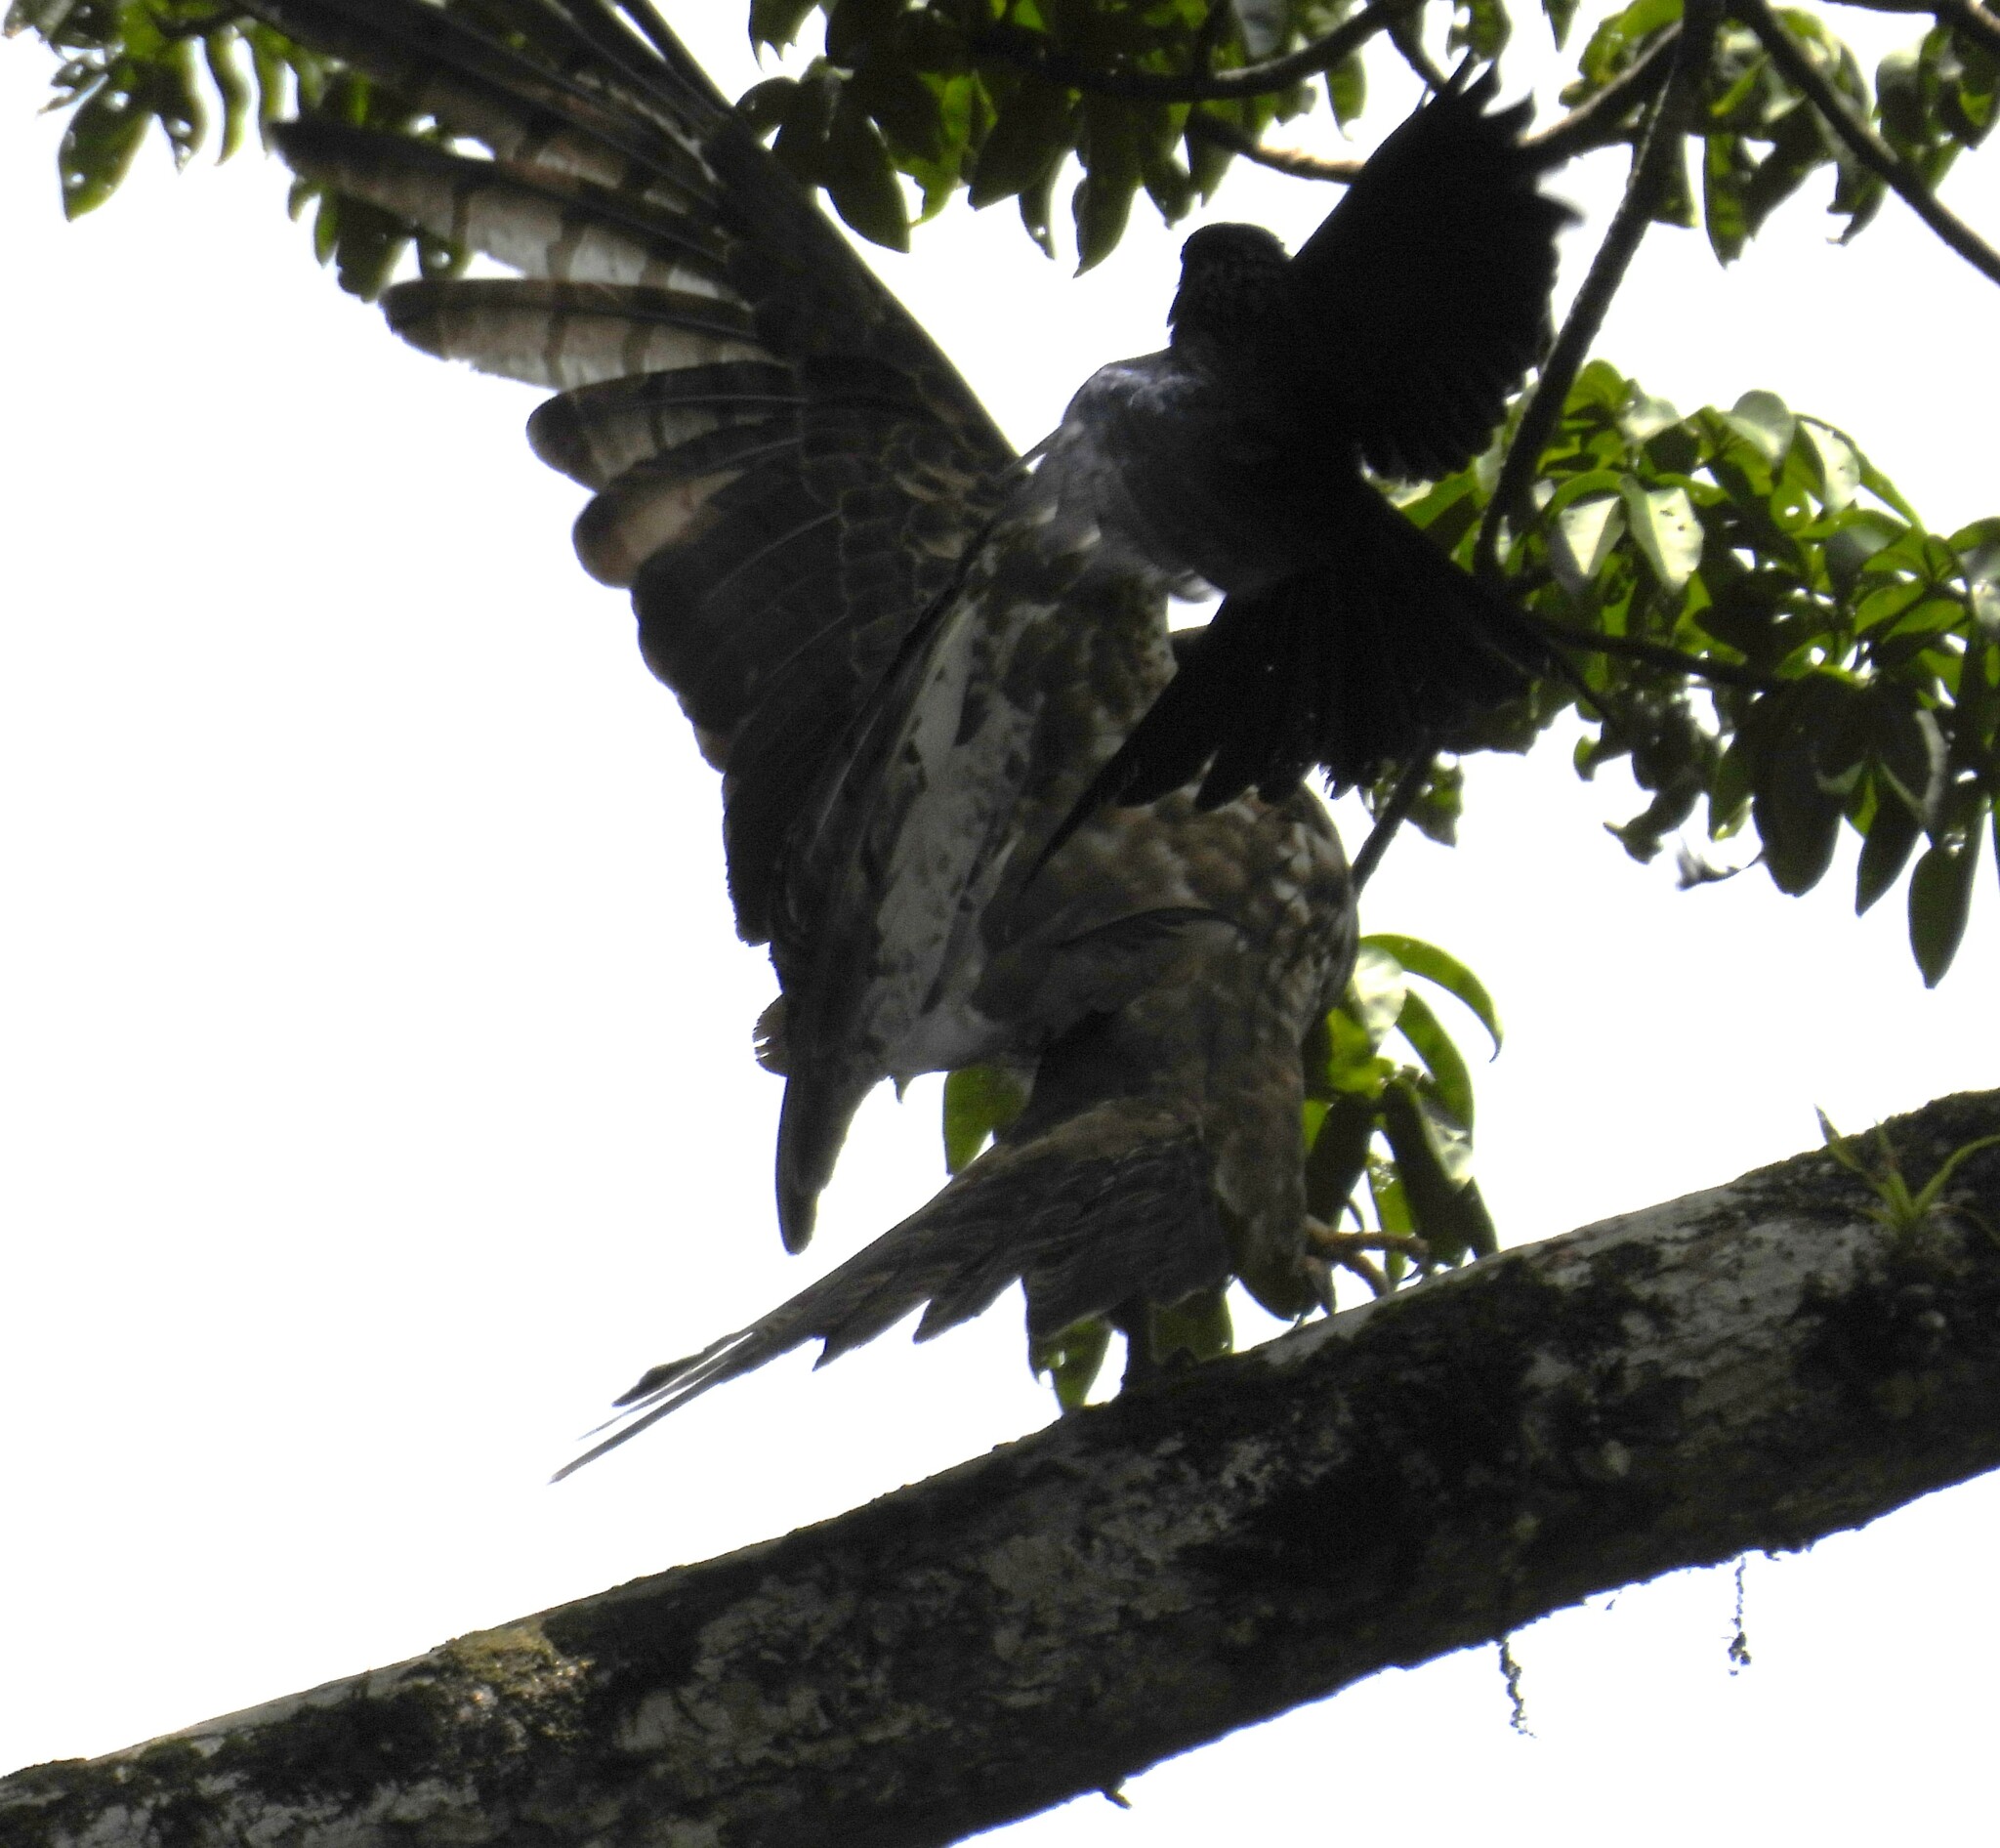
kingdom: Animalia
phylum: Chordata
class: Aves
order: Passeriformes
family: Dicruridae
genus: Dicrurus
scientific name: Dicrurus paradiseus
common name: Greater racket-tailed drongo
